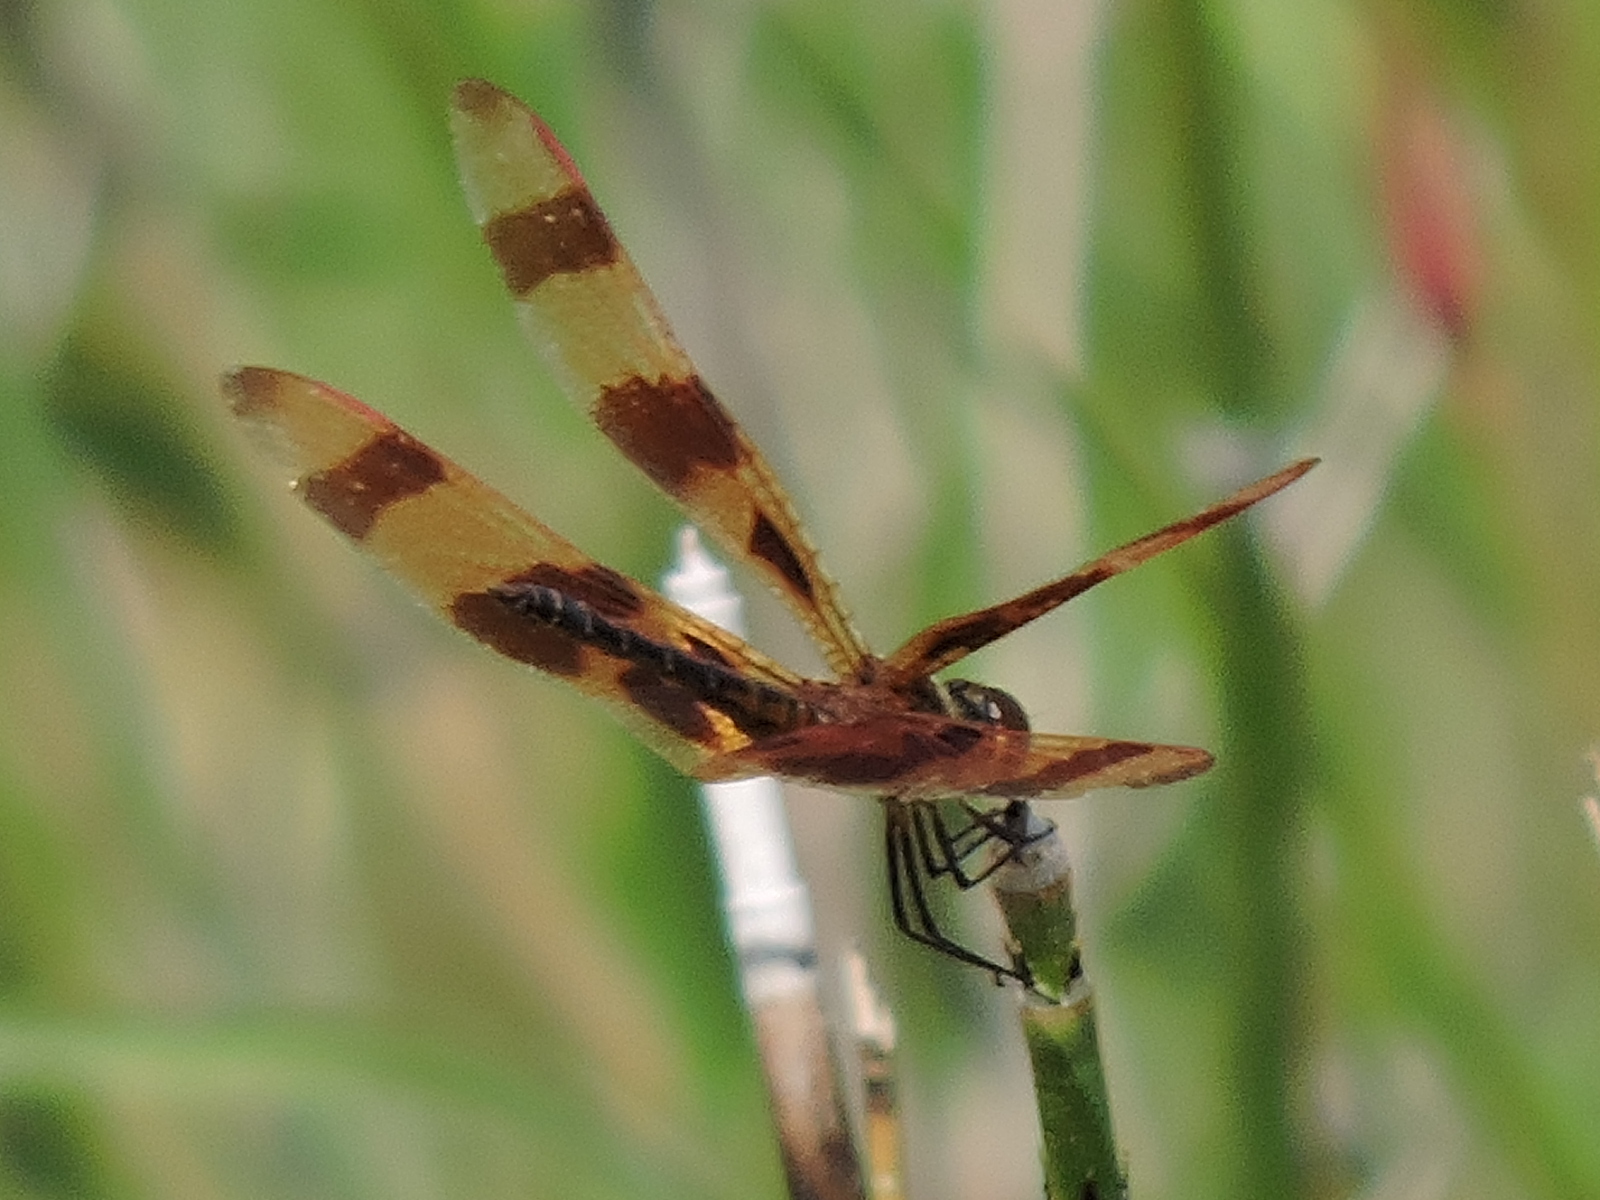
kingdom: Animalia
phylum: Arthropoda
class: Insecta
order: Odonata
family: Libellulidae
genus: Celithemis
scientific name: Celithemis eponina
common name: Halloween pennant
